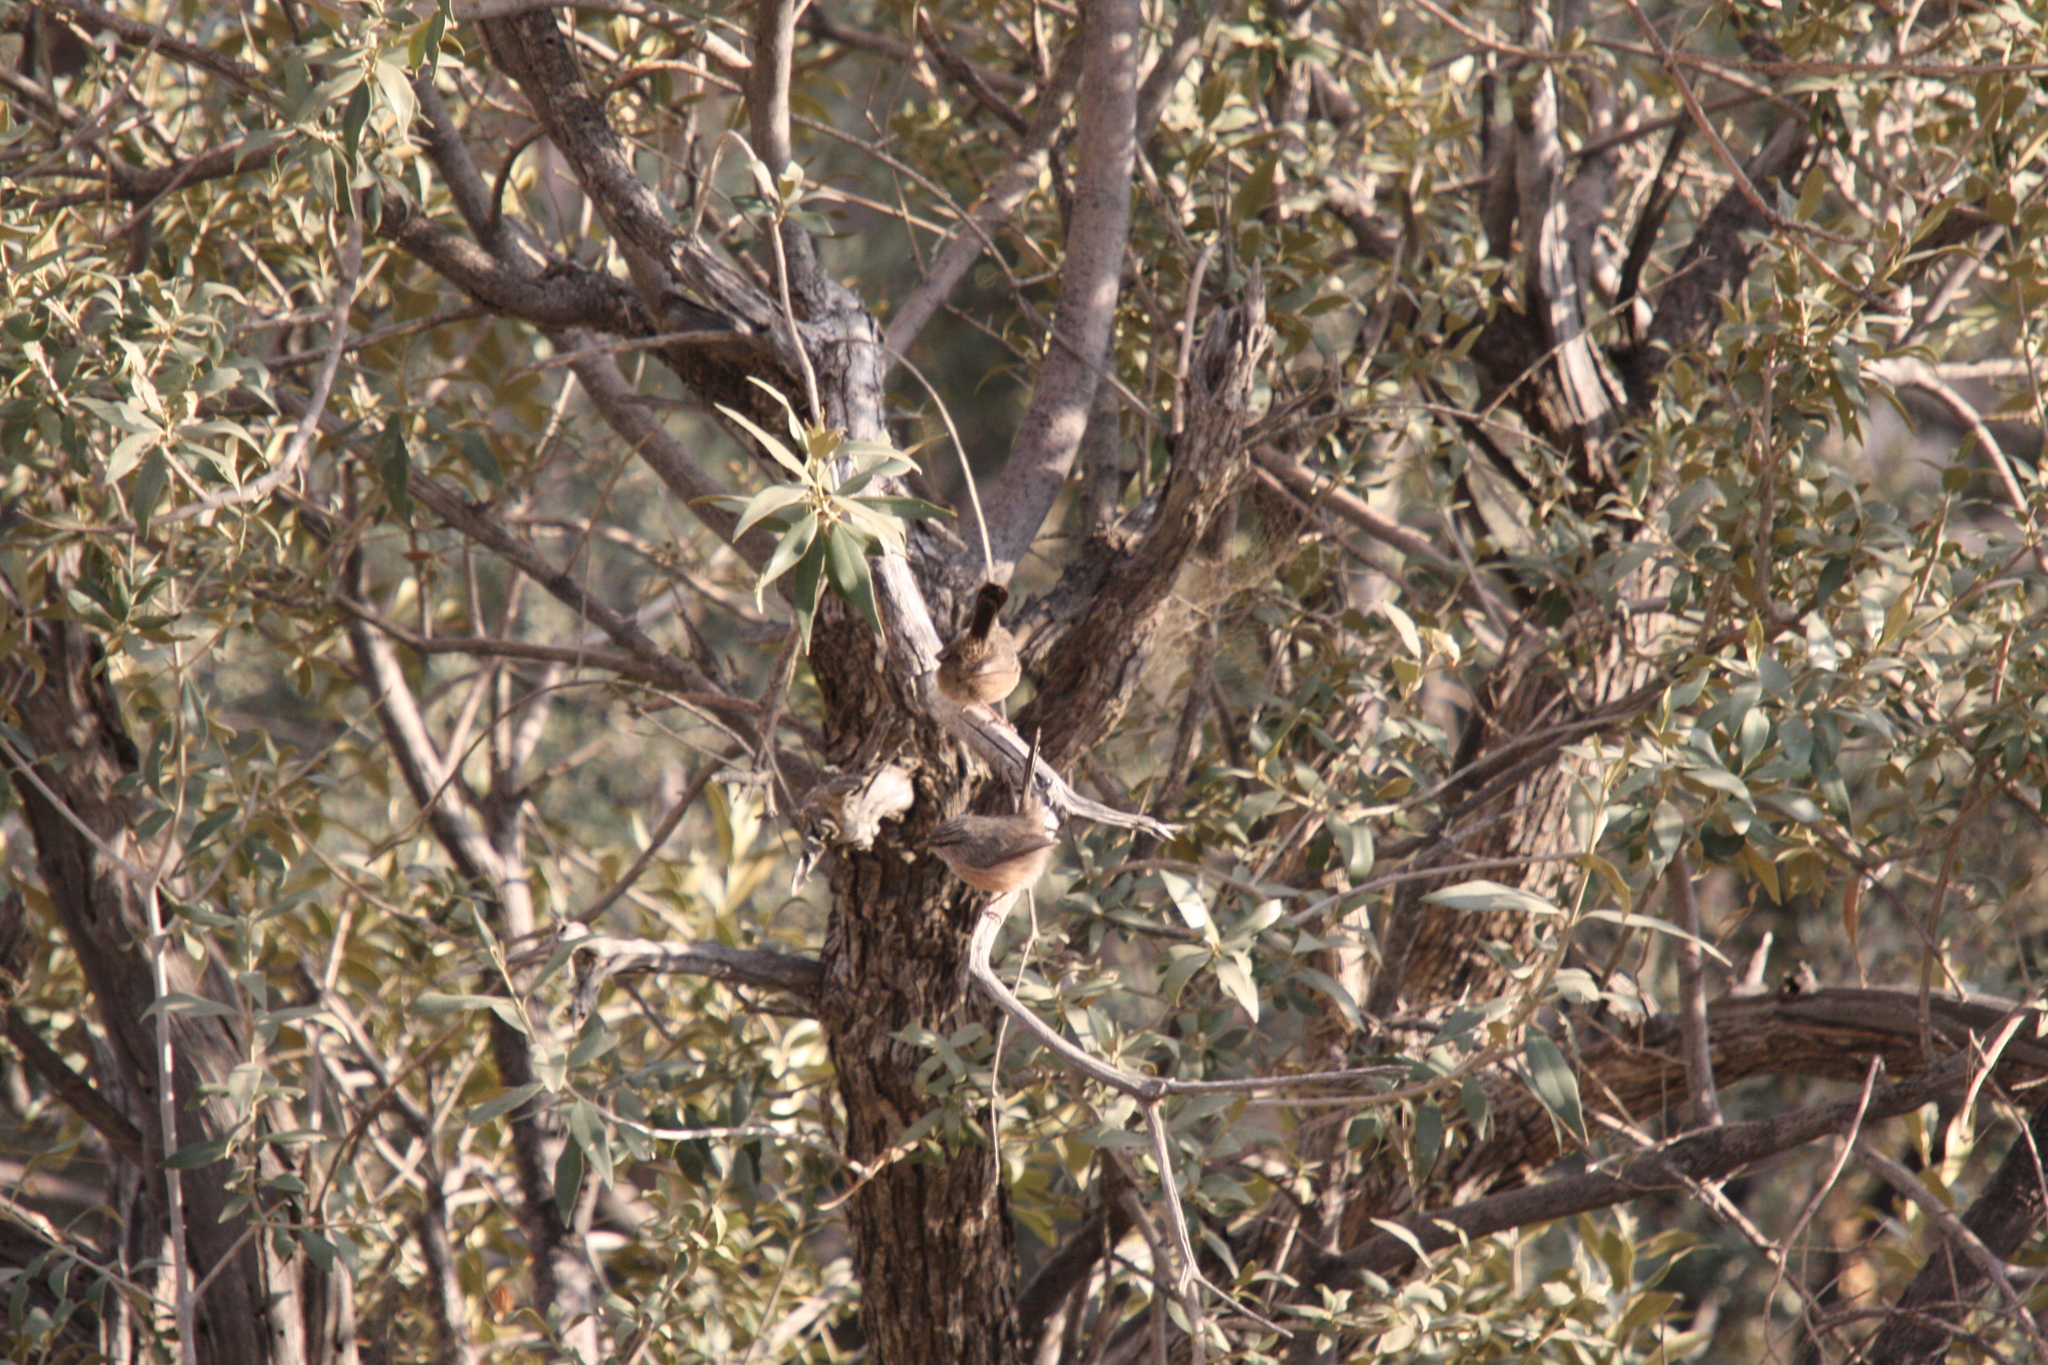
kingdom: Animalia
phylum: Chordata
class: Aves
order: Passeriformes
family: Scotocercidae
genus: Scotocerca
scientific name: Scotocerca inquieta
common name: Scrub warbler
